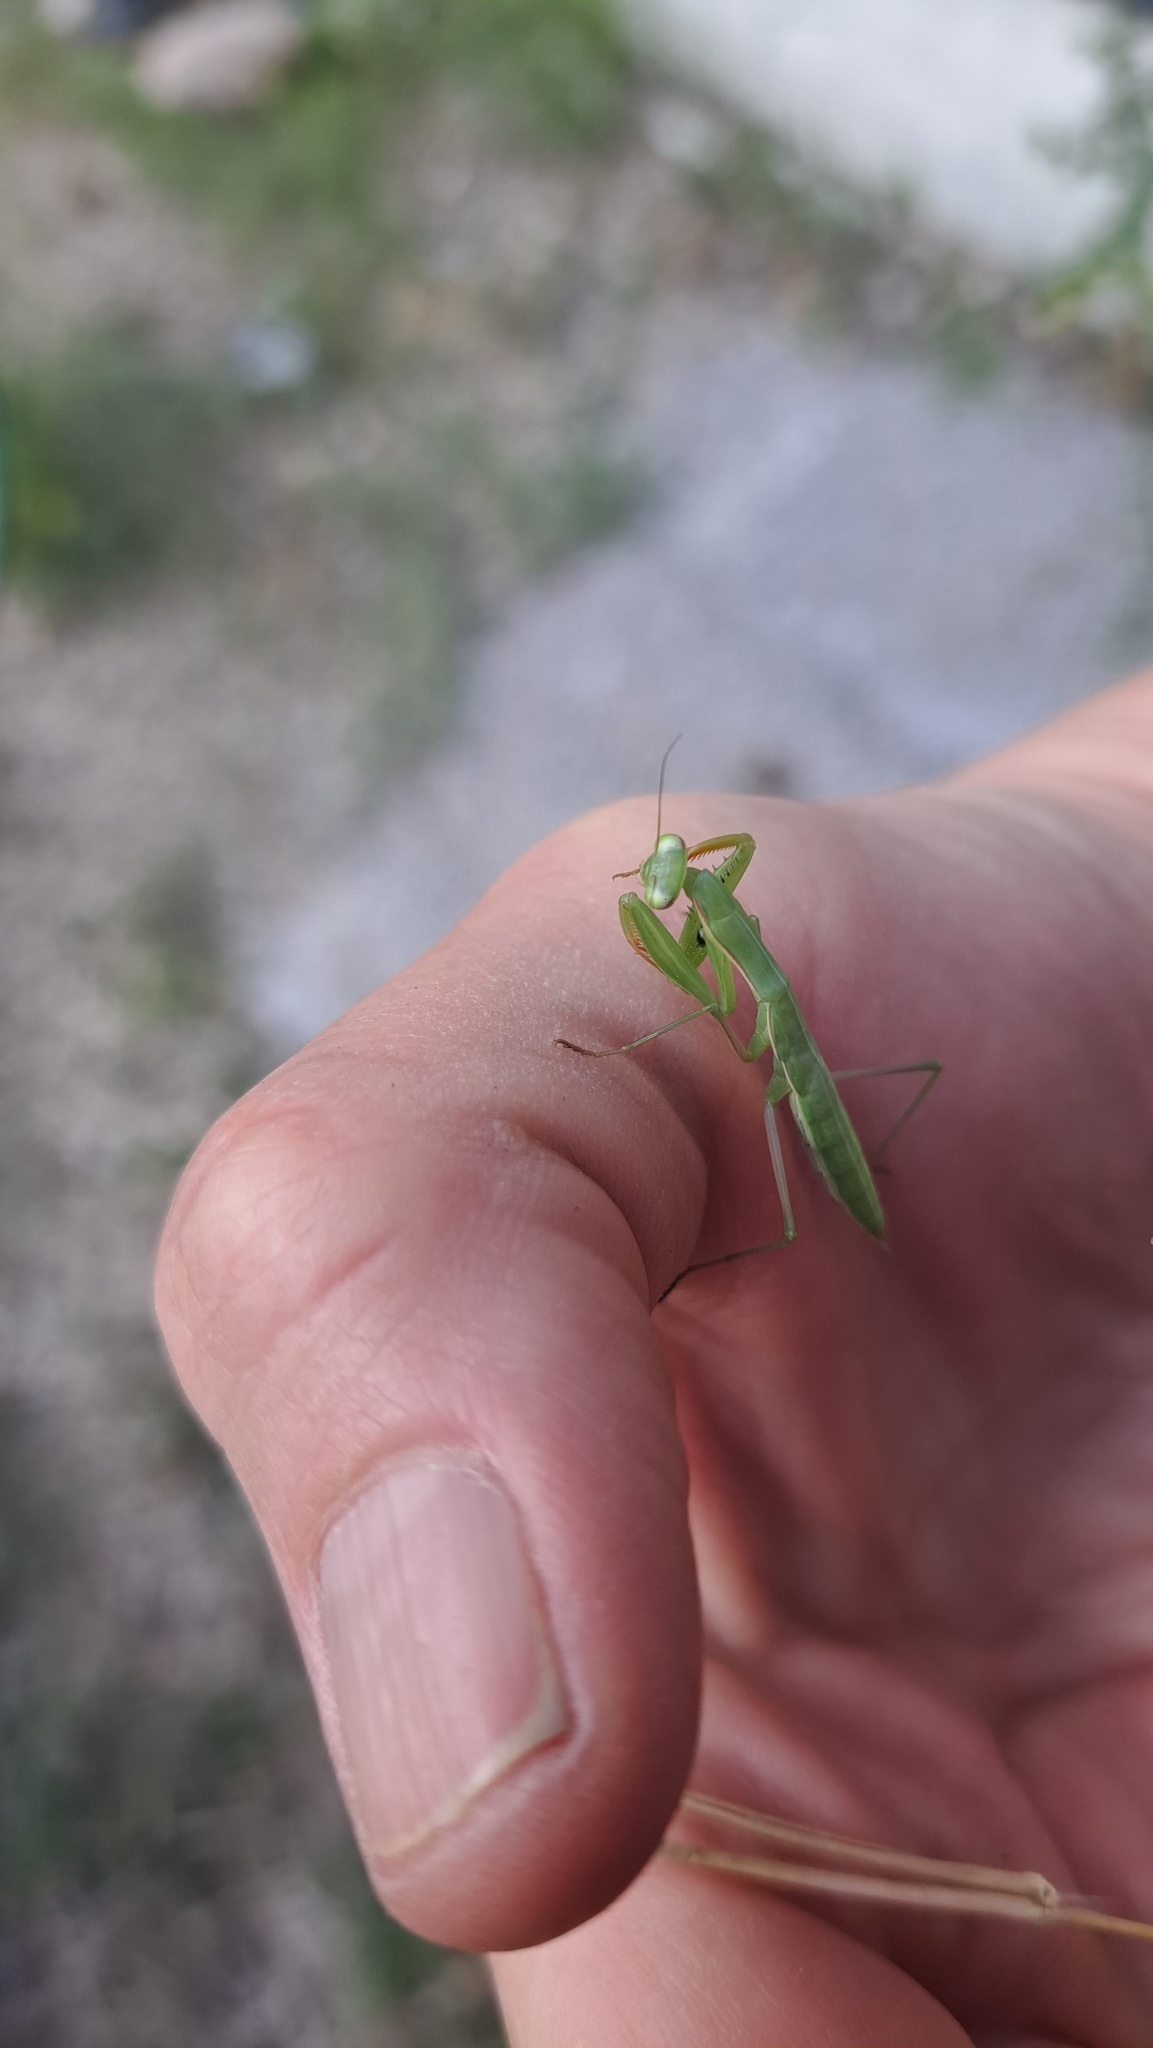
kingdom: Animalia
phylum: Arthropoda
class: Insecta
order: Mantodea
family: Mantidae
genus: Mantis
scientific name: Mantis religiosa
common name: Praying mantis
